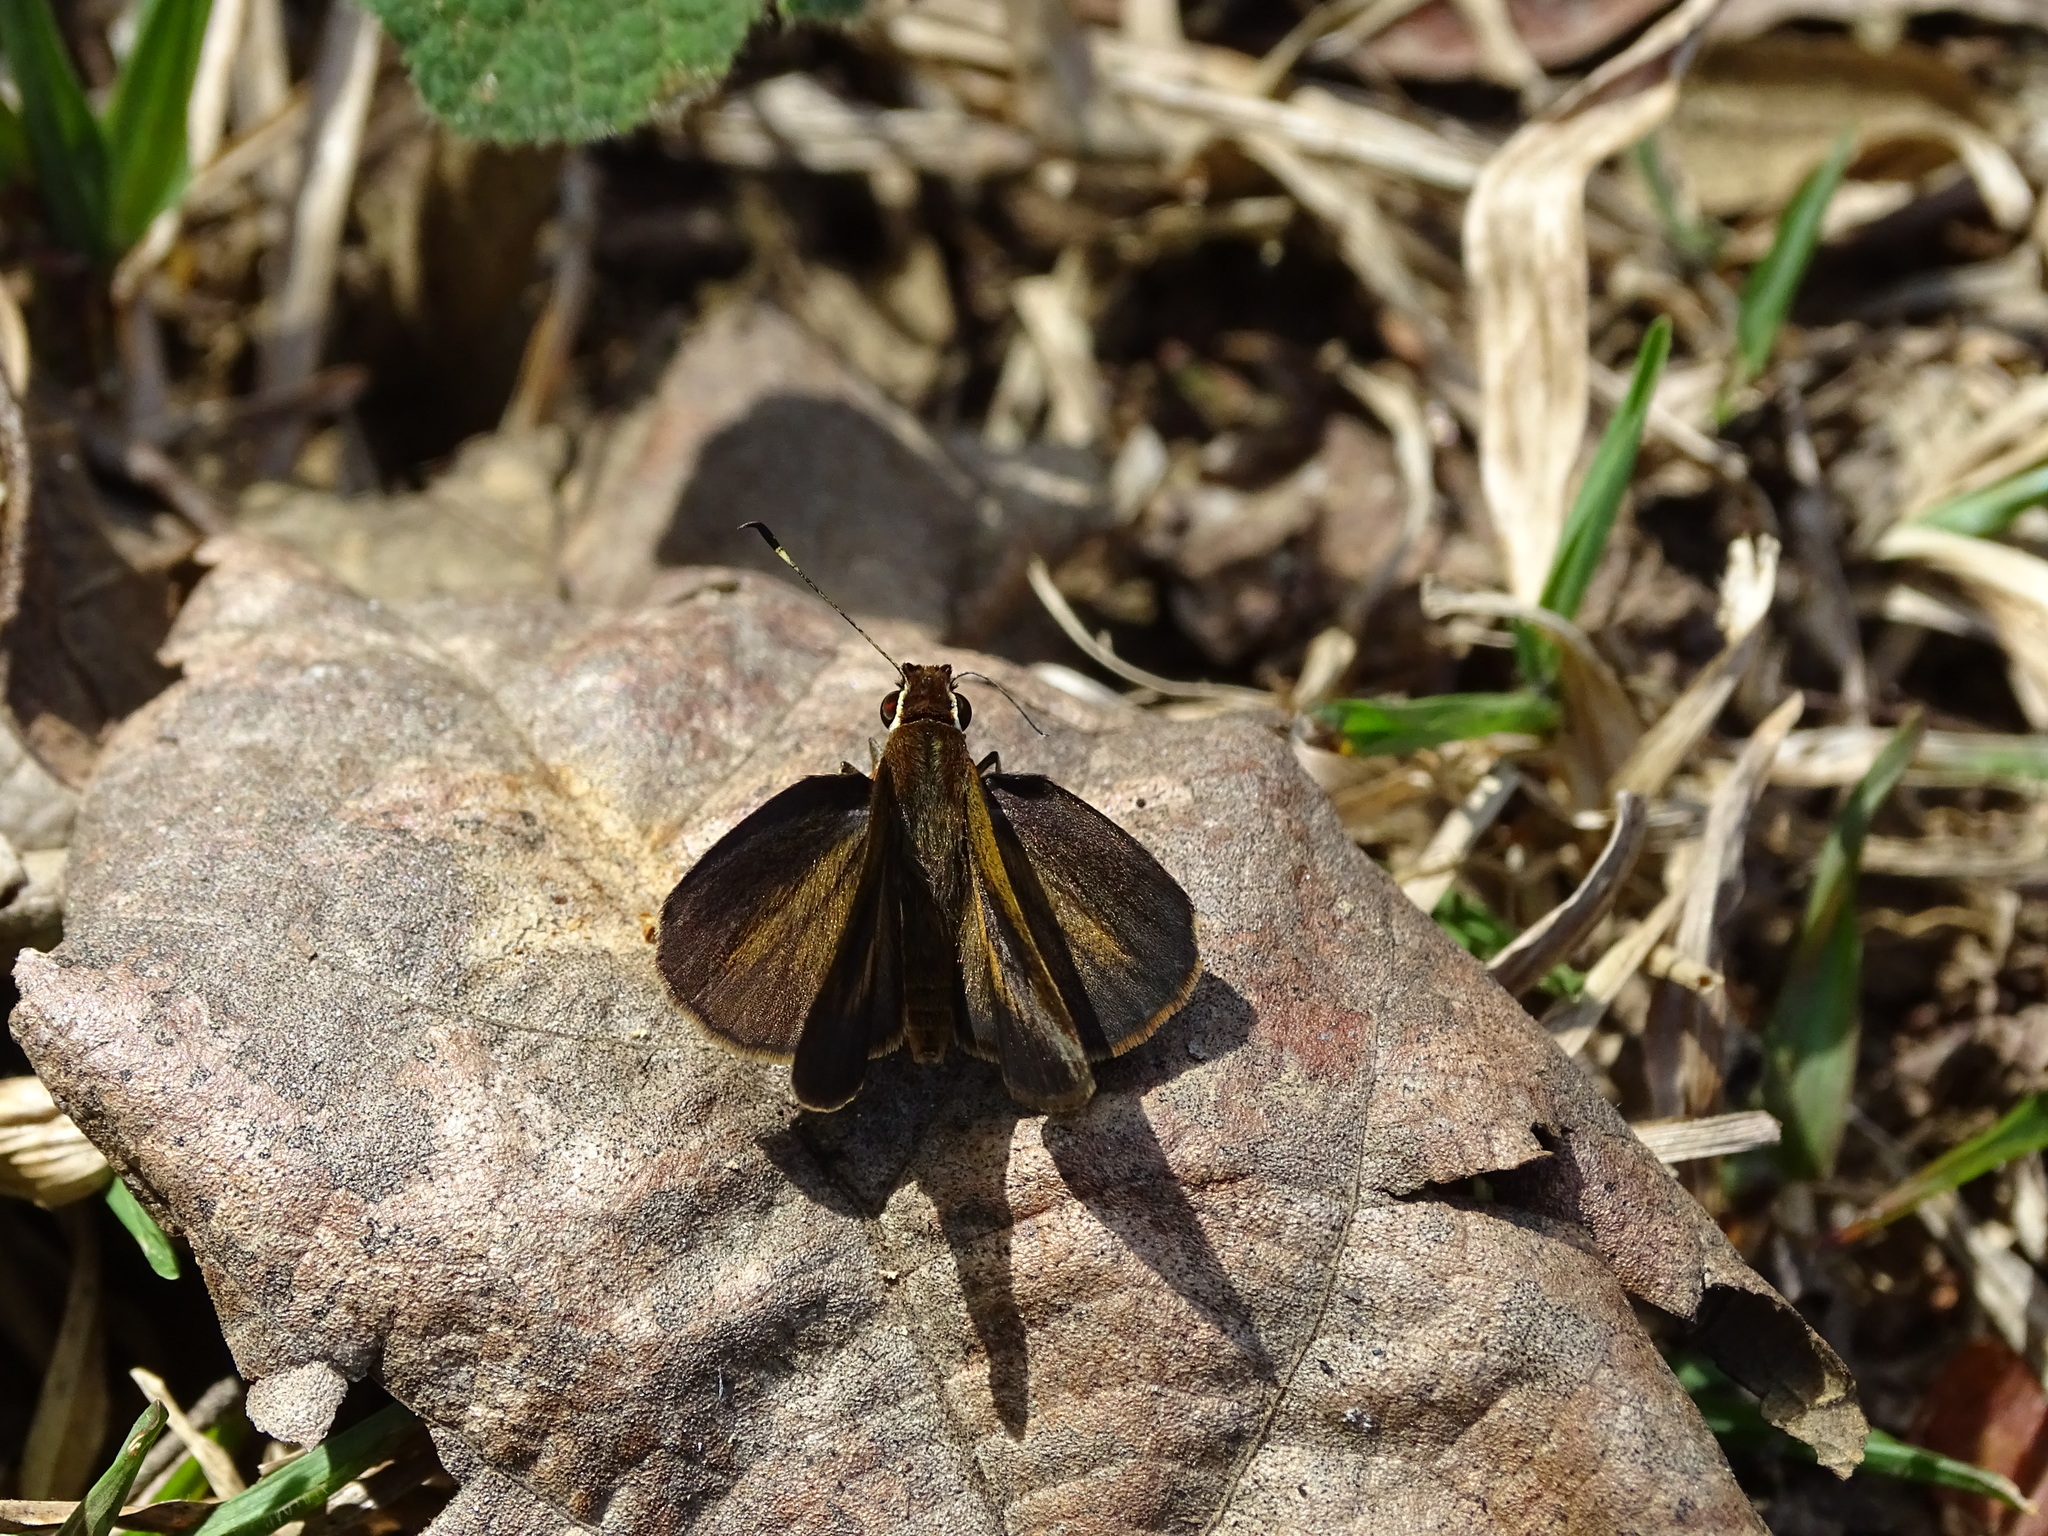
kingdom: Animalia
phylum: Arthropoda
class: Insecta
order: Lepidoptera
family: Hesperiidae
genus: Synapte
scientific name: Synapte malitiosa
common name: Caribbean faceted-skipper
